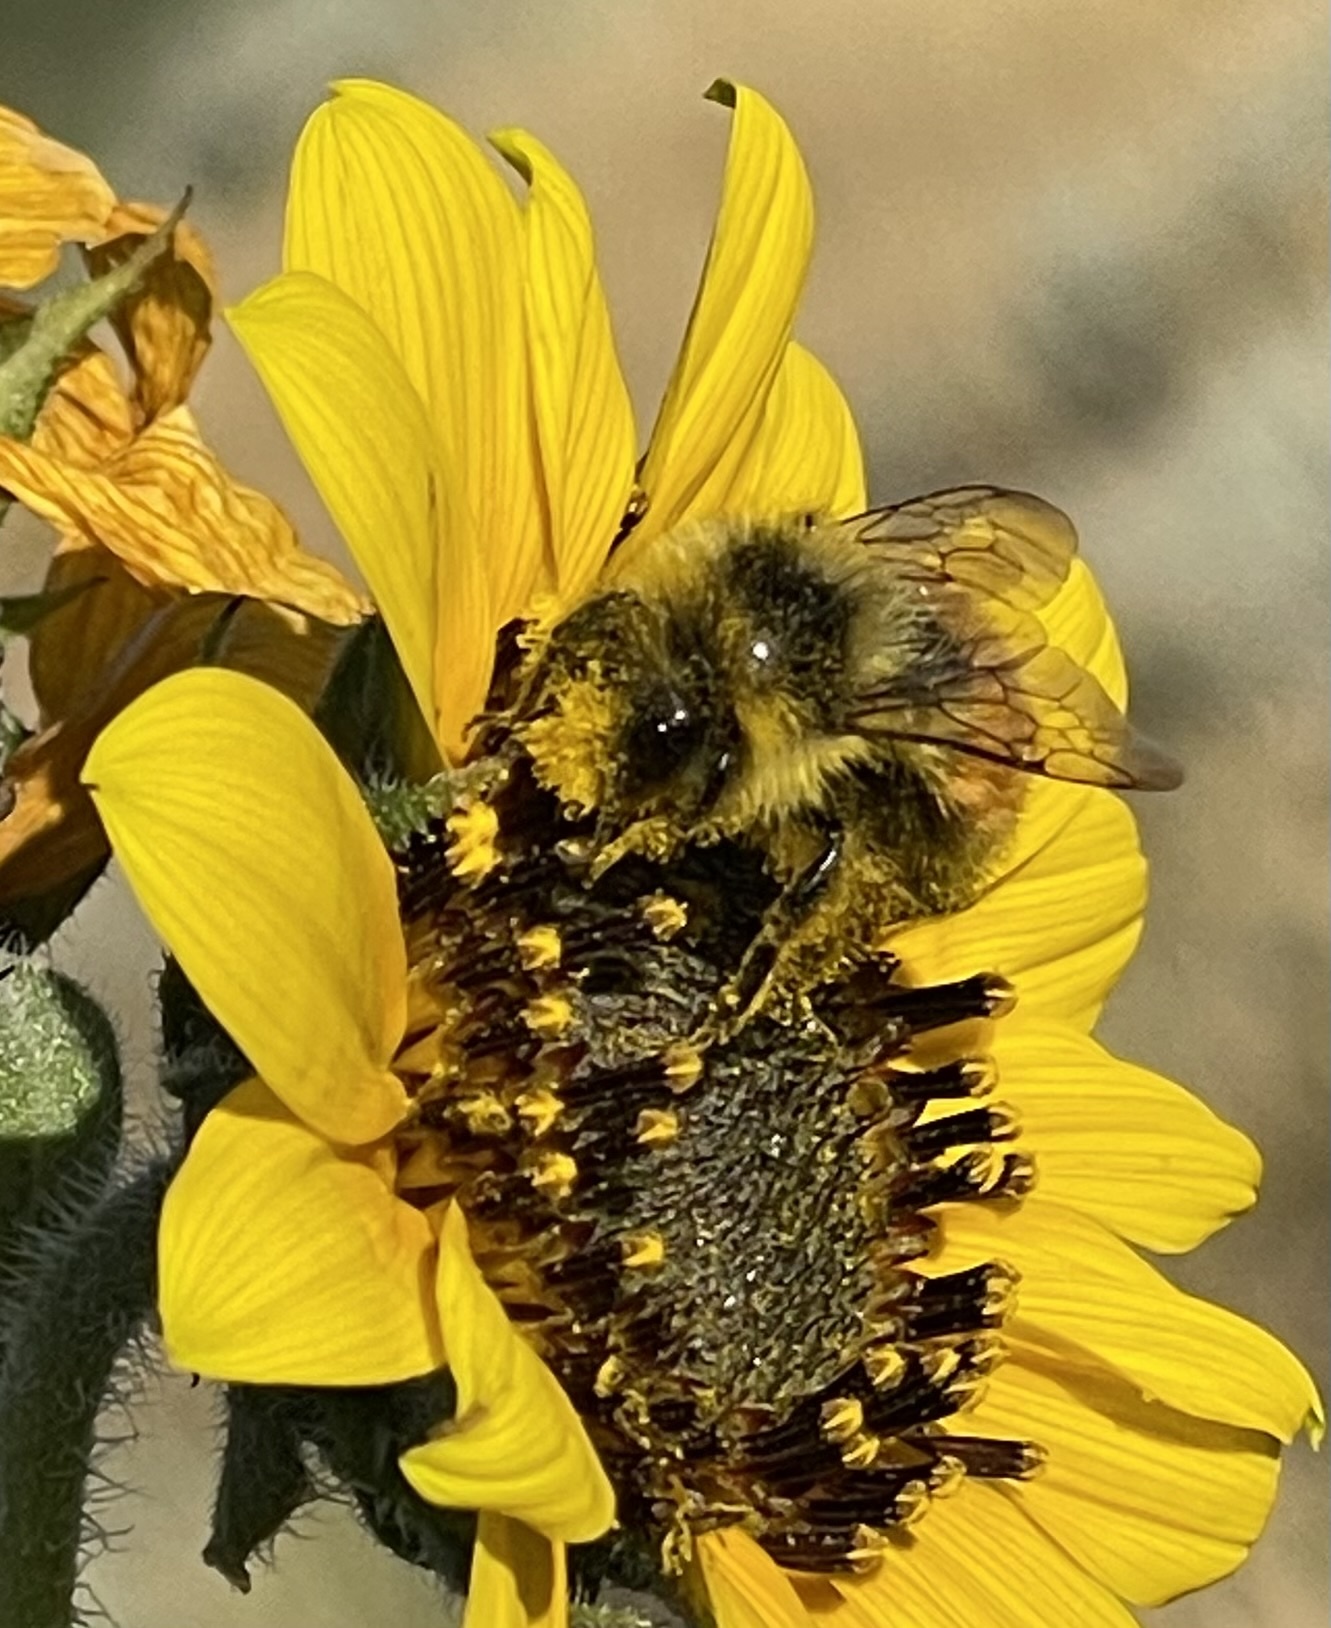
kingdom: Animalia
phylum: Arthropoda
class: Insecta
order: Hymenoptera
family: Apidae
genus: Bombus
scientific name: Bombus huntii
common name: Hunt bumble bee
